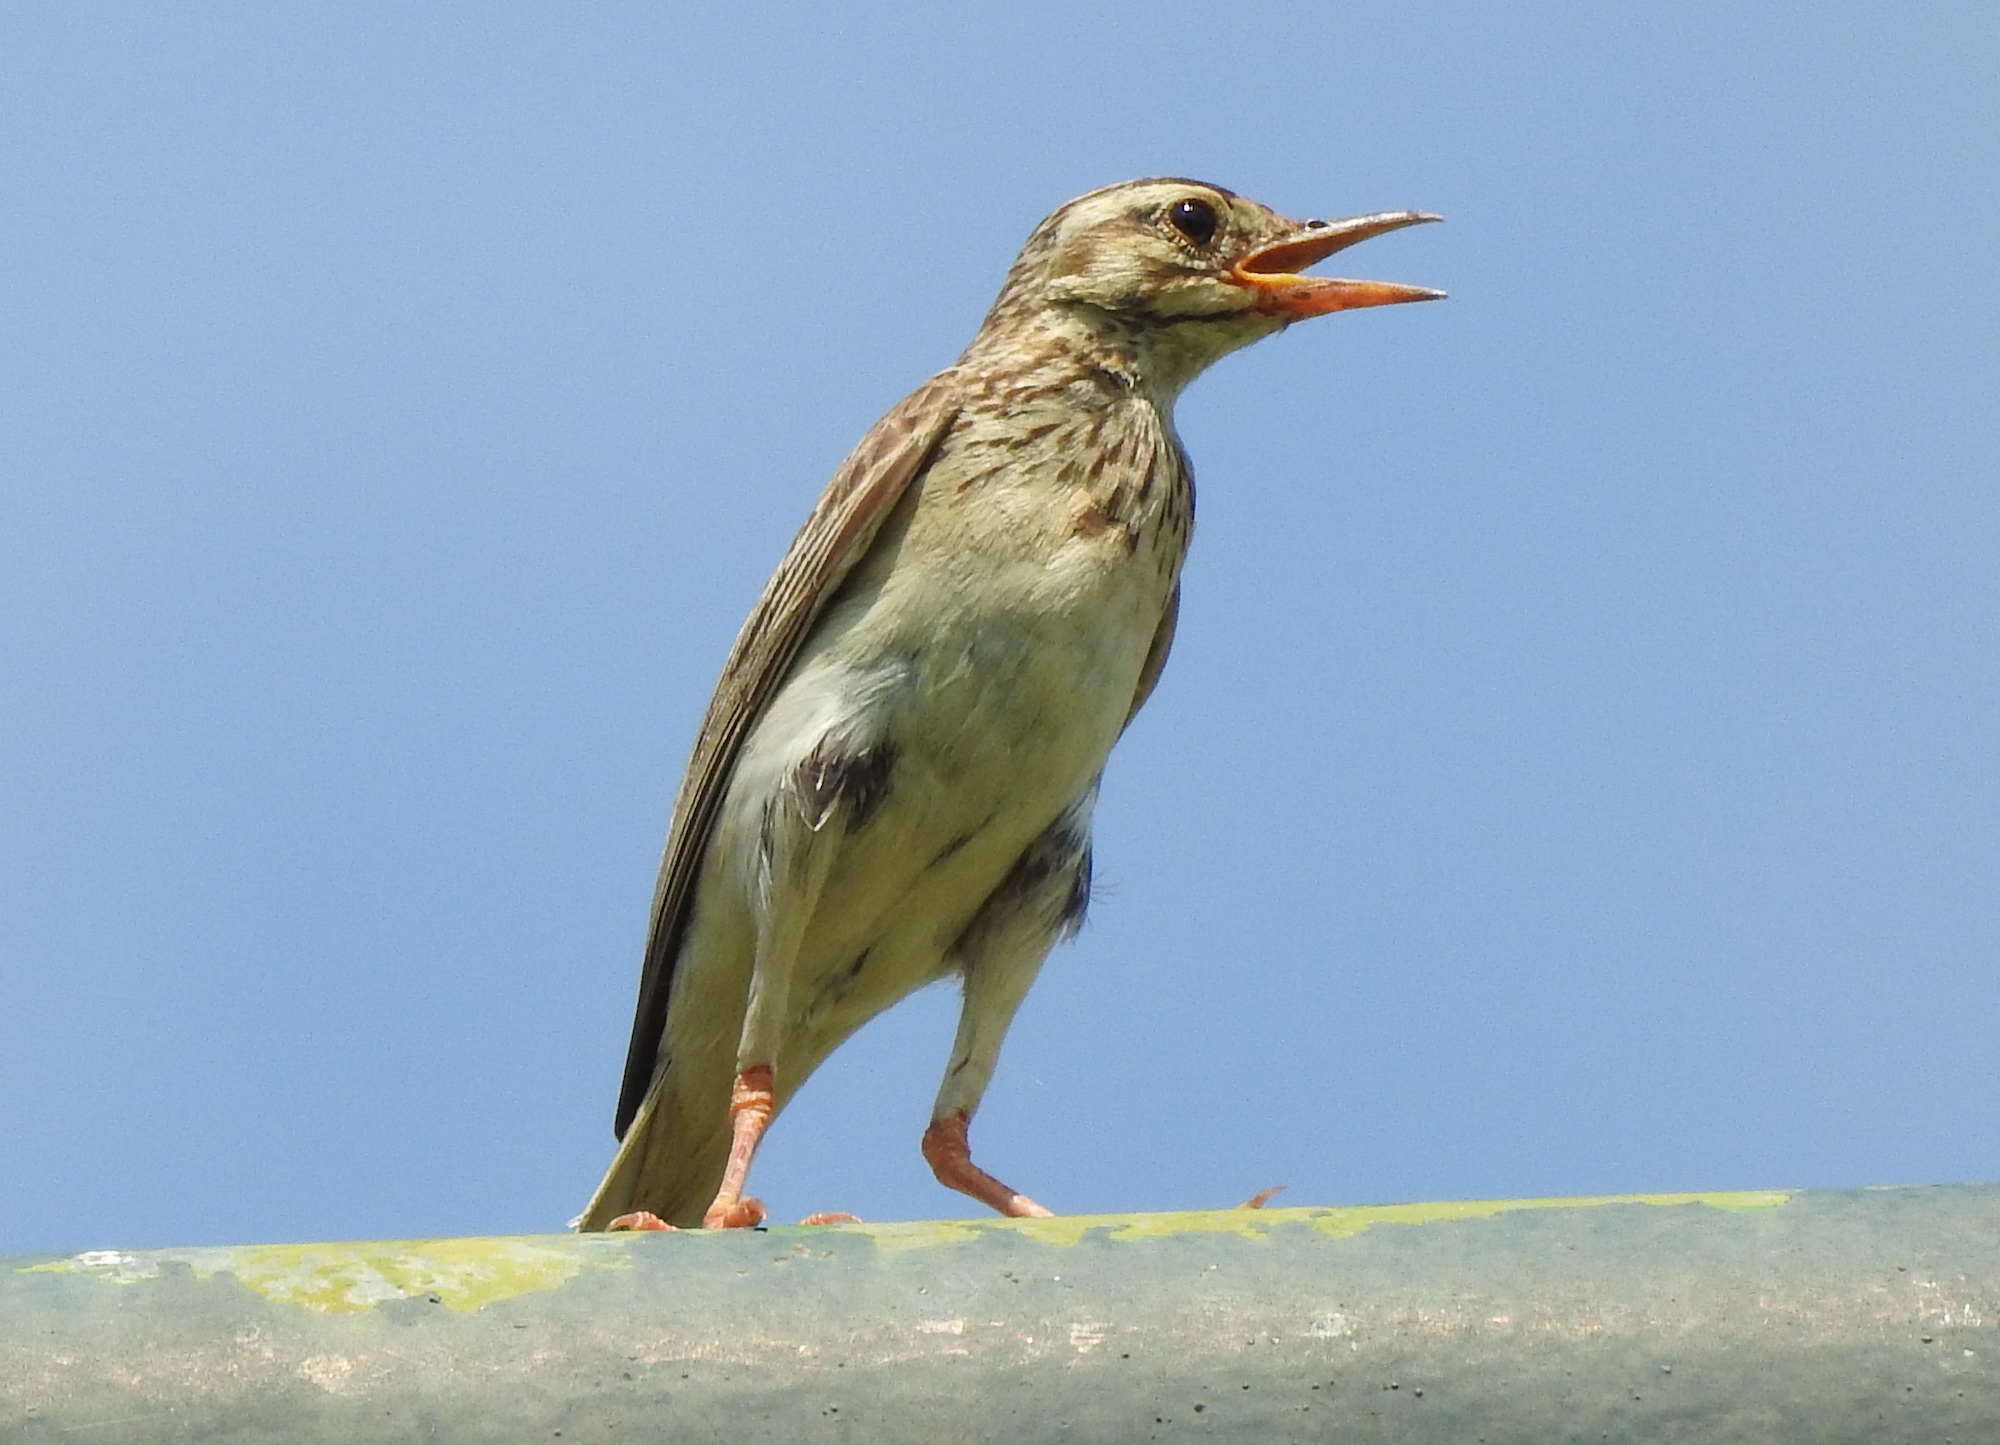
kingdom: Animalia
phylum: Chordata
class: Aves
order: Passeriformes
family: Motacillidae
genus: Anthus
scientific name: Anthus rufulus
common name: Paddyfield pipit
